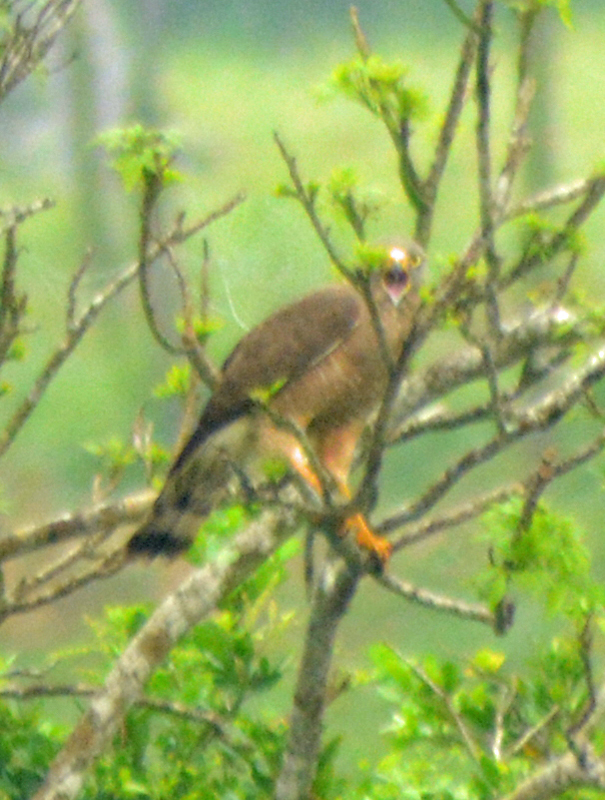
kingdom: Animalia
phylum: Chordata
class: Aves
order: Accipitriformes
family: Accipitridae
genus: Rupornis
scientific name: Rupornis magnirostris
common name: Roadside hawk
